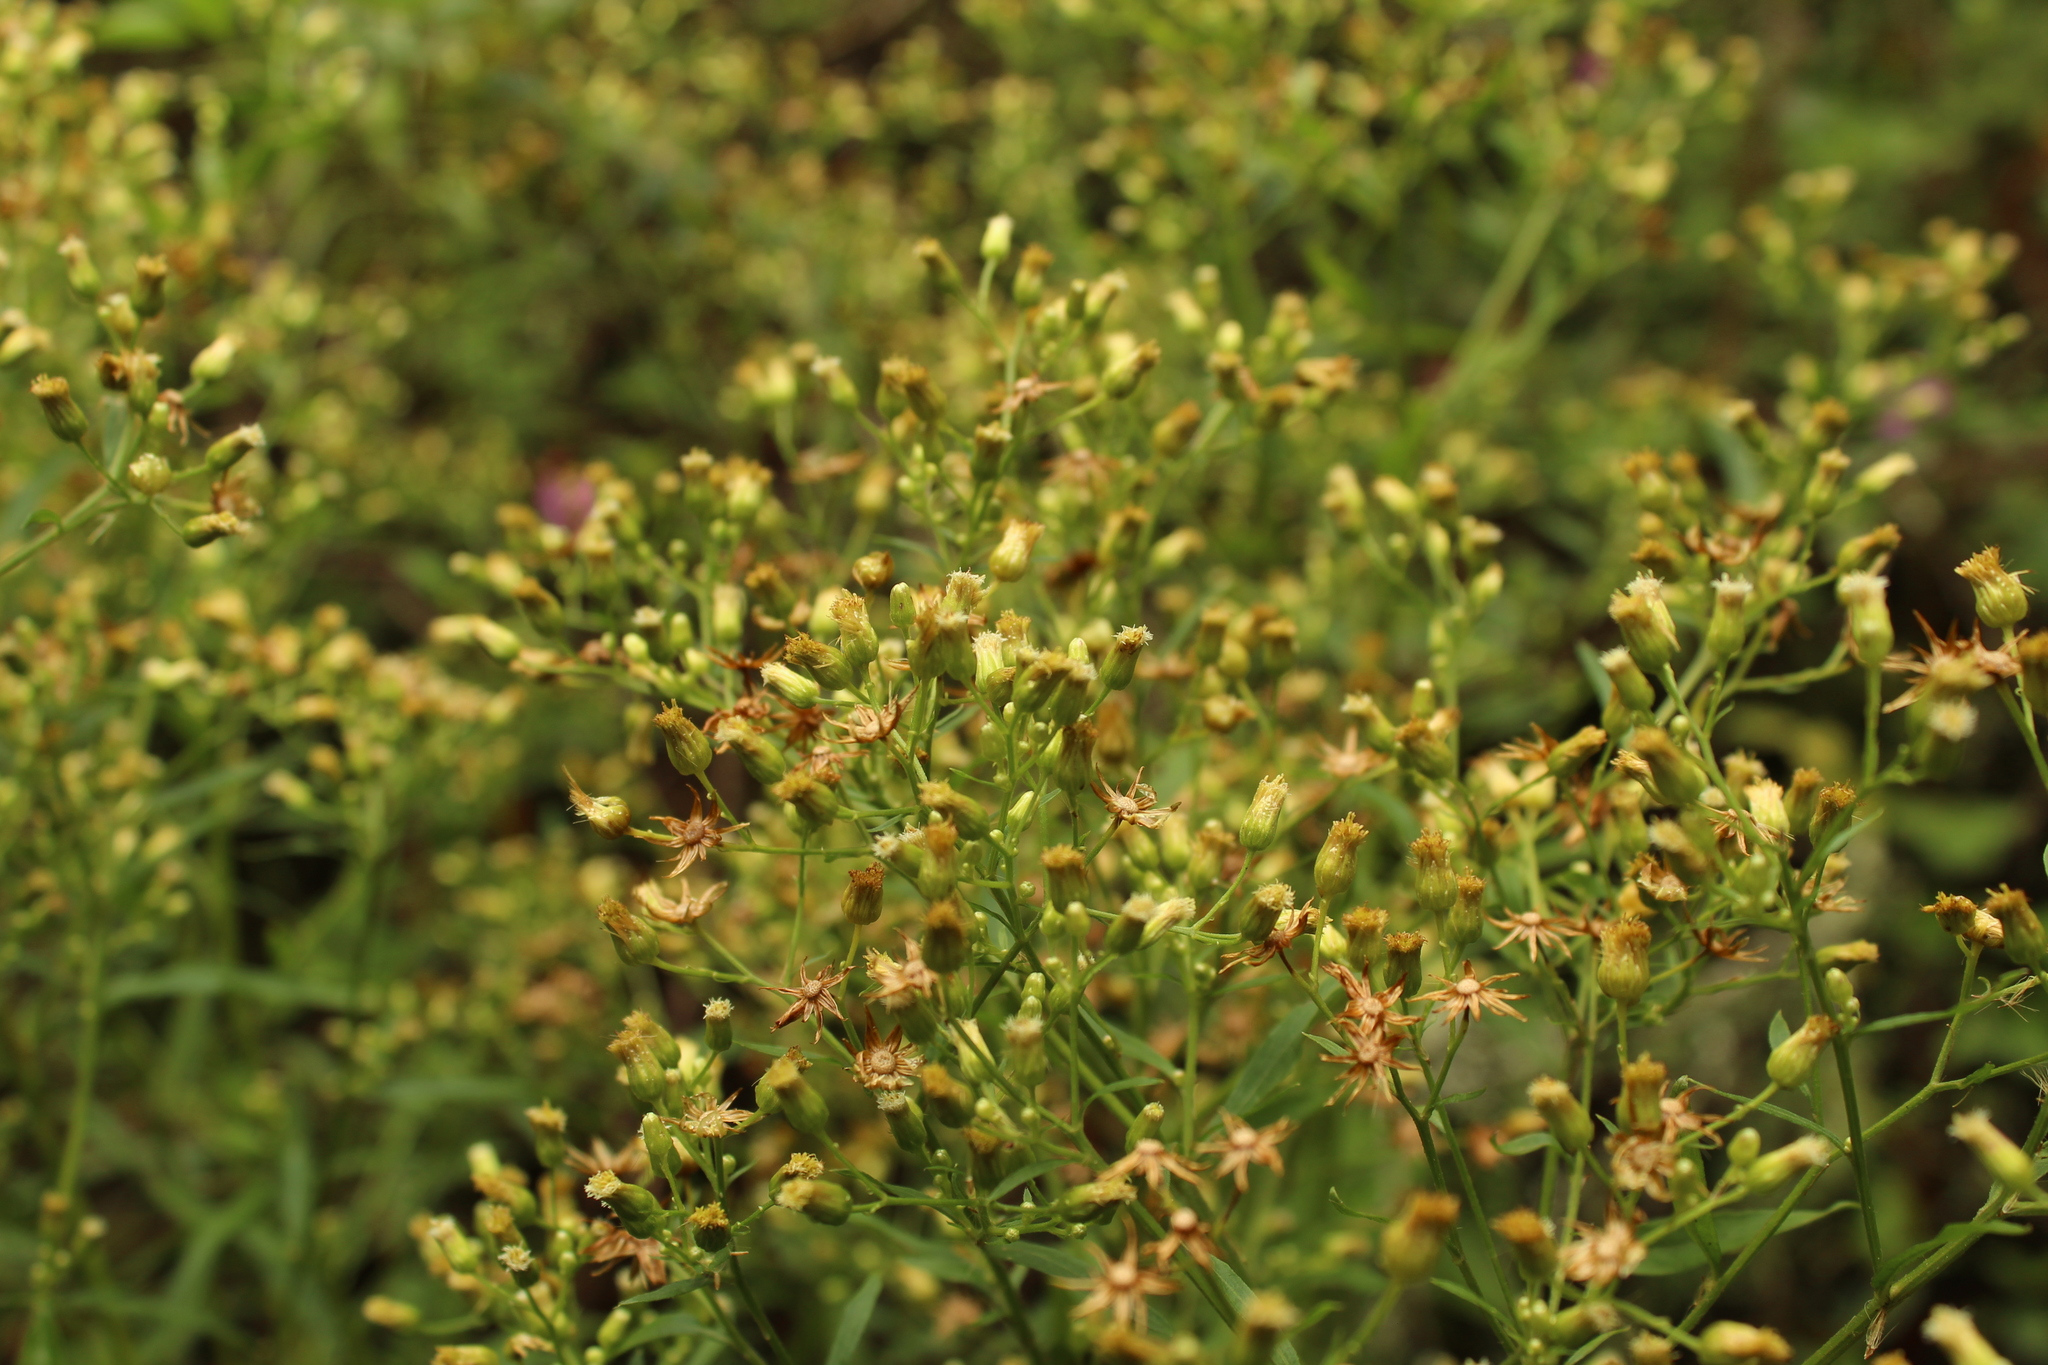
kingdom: Plantae
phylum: Tracheophyta
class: Magnoliopsida
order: Asterales
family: Asteraceae
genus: Erigeron
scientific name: Erigeron bonariensis
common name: Argentine fleabane
